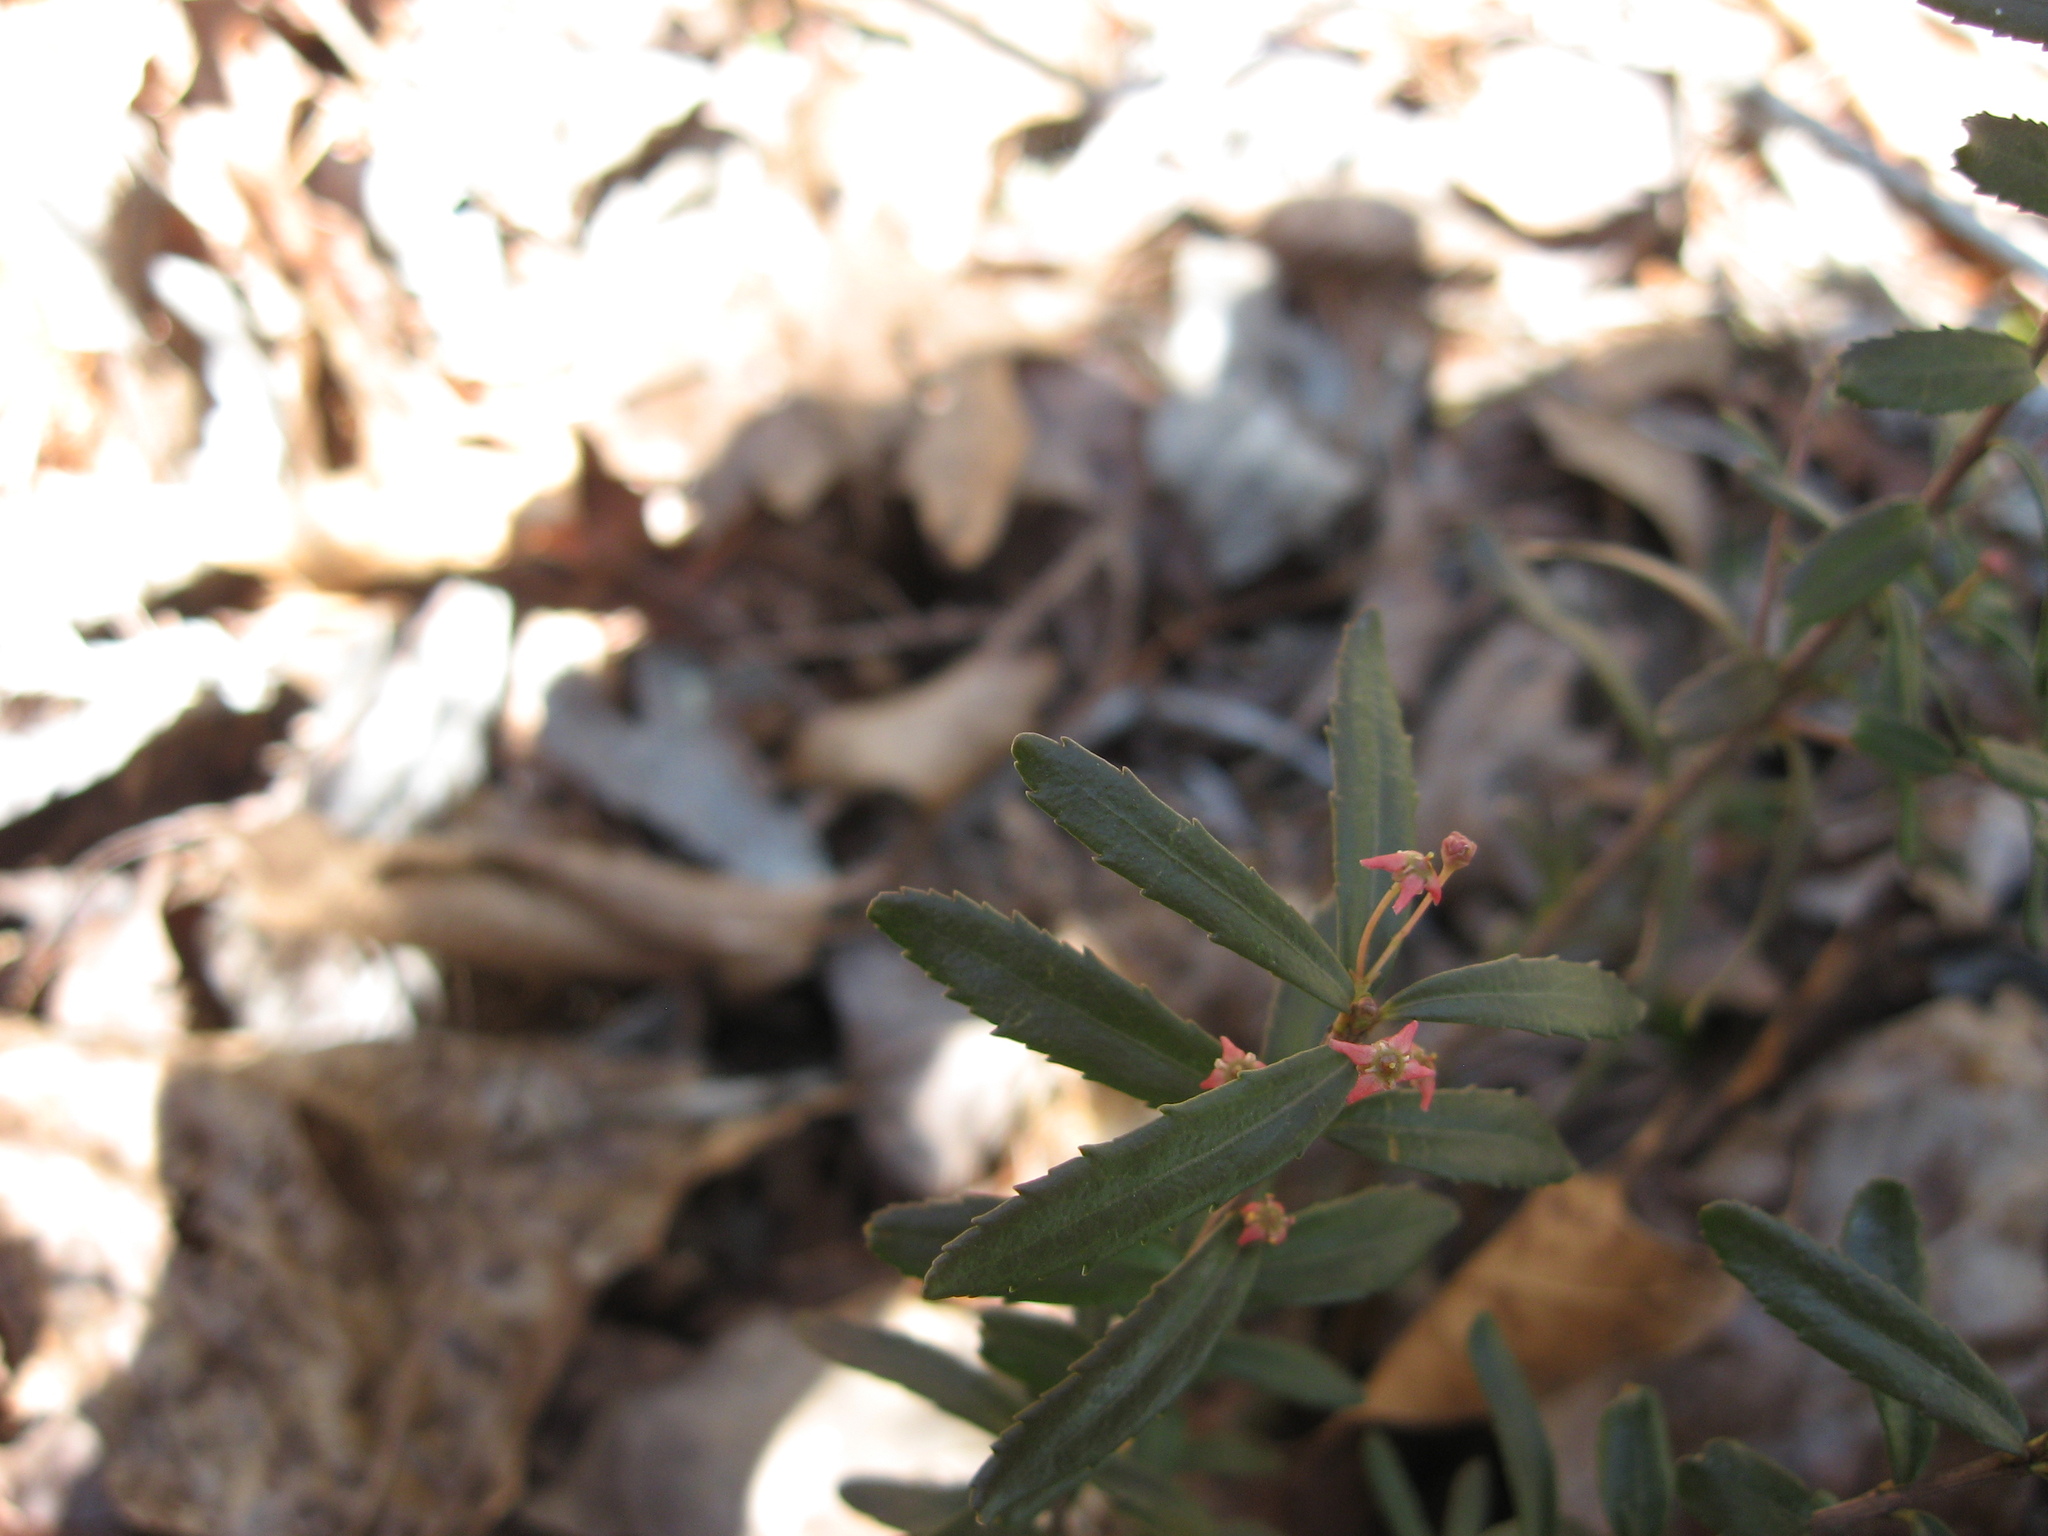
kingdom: Plantae
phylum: Tracheophyta
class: Magnoliopsida
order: Celastrales
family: Celastraceae
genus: Paxistima
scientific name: Paxistima canbyi
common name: Cliffgreen
